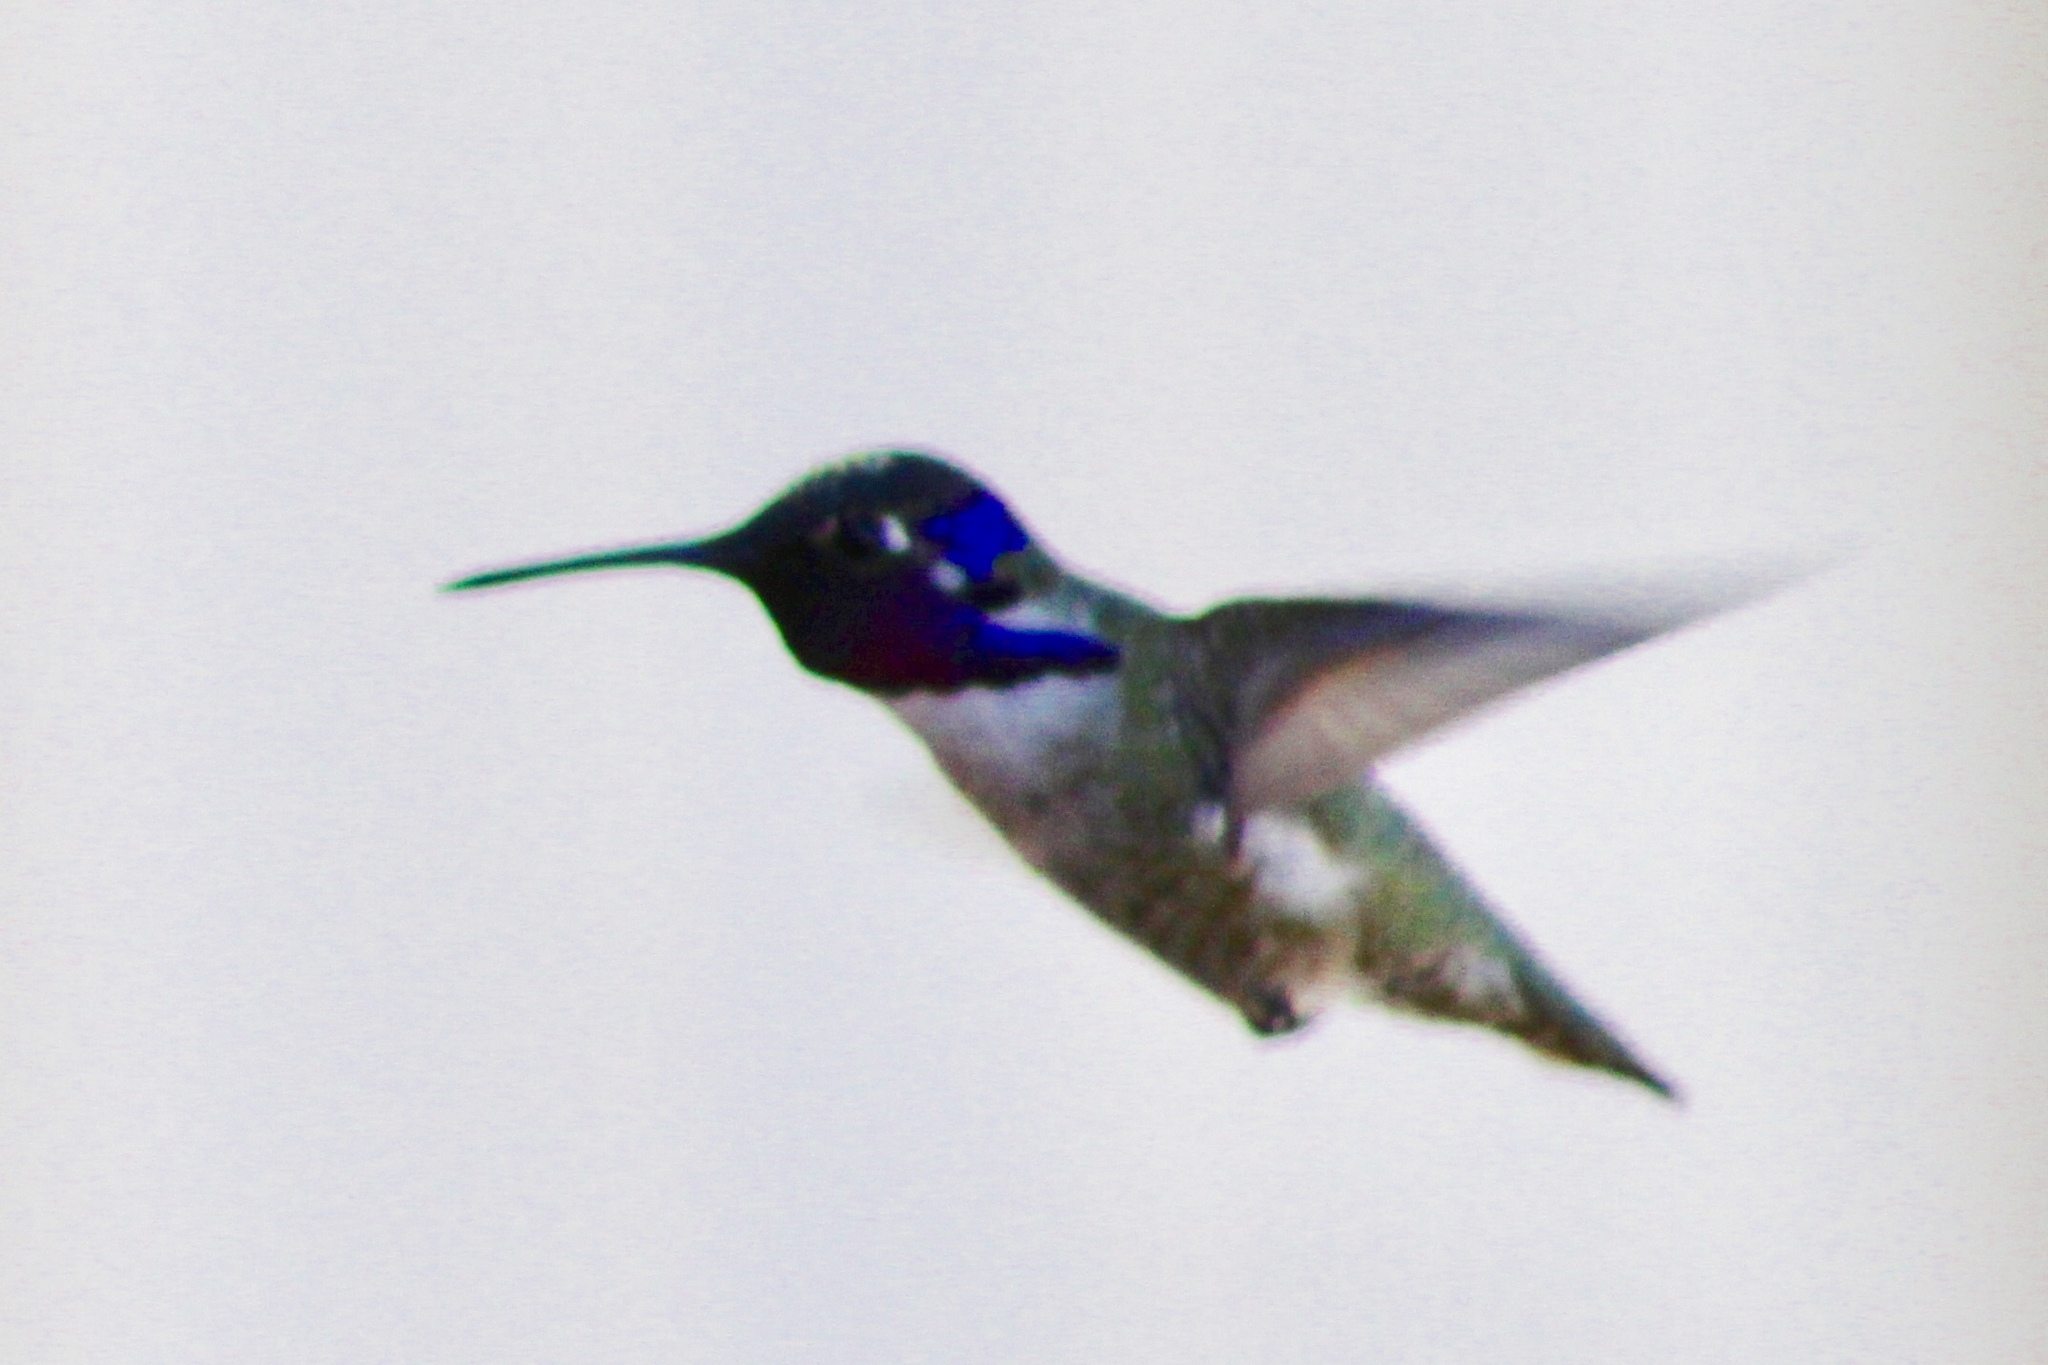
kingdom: Animalia
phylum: Chordata
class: Aves
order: Apodiformes
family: Trochilidae
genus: Calypte
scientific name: Calypte costae
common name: Costa's hummingbird
